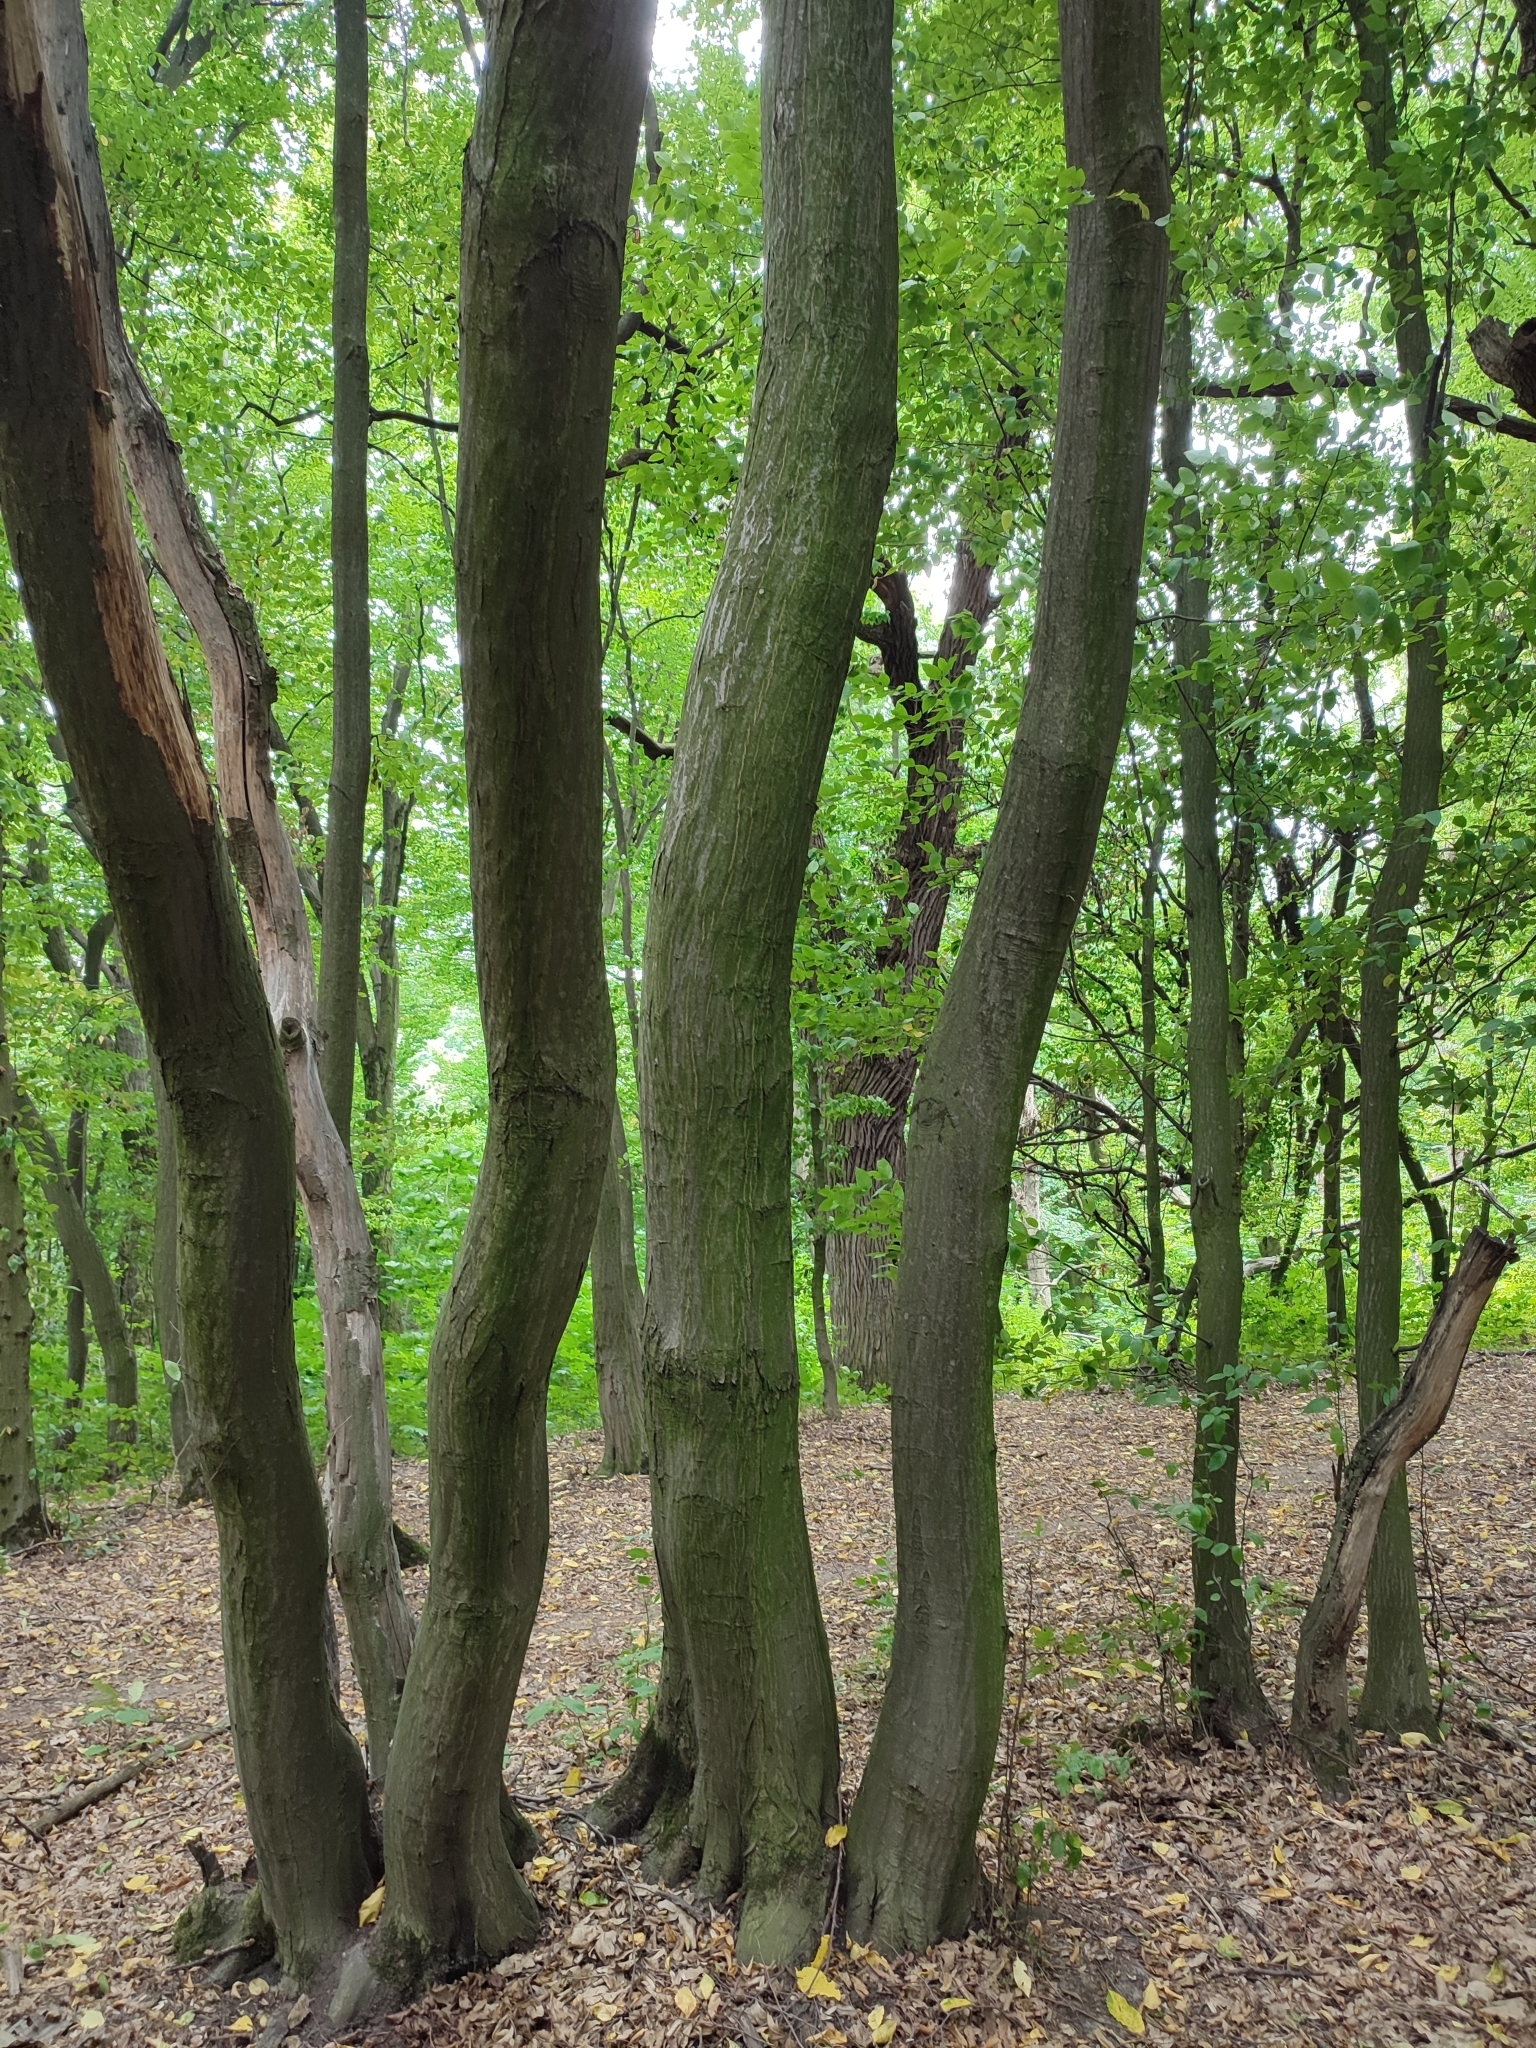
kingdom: Plantae
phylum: Tracheophyta
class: Magnoliopsida
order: Fagales
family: Betulaceae
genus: Carpinus
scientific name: Carpinus betulus
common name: Hornbeam
